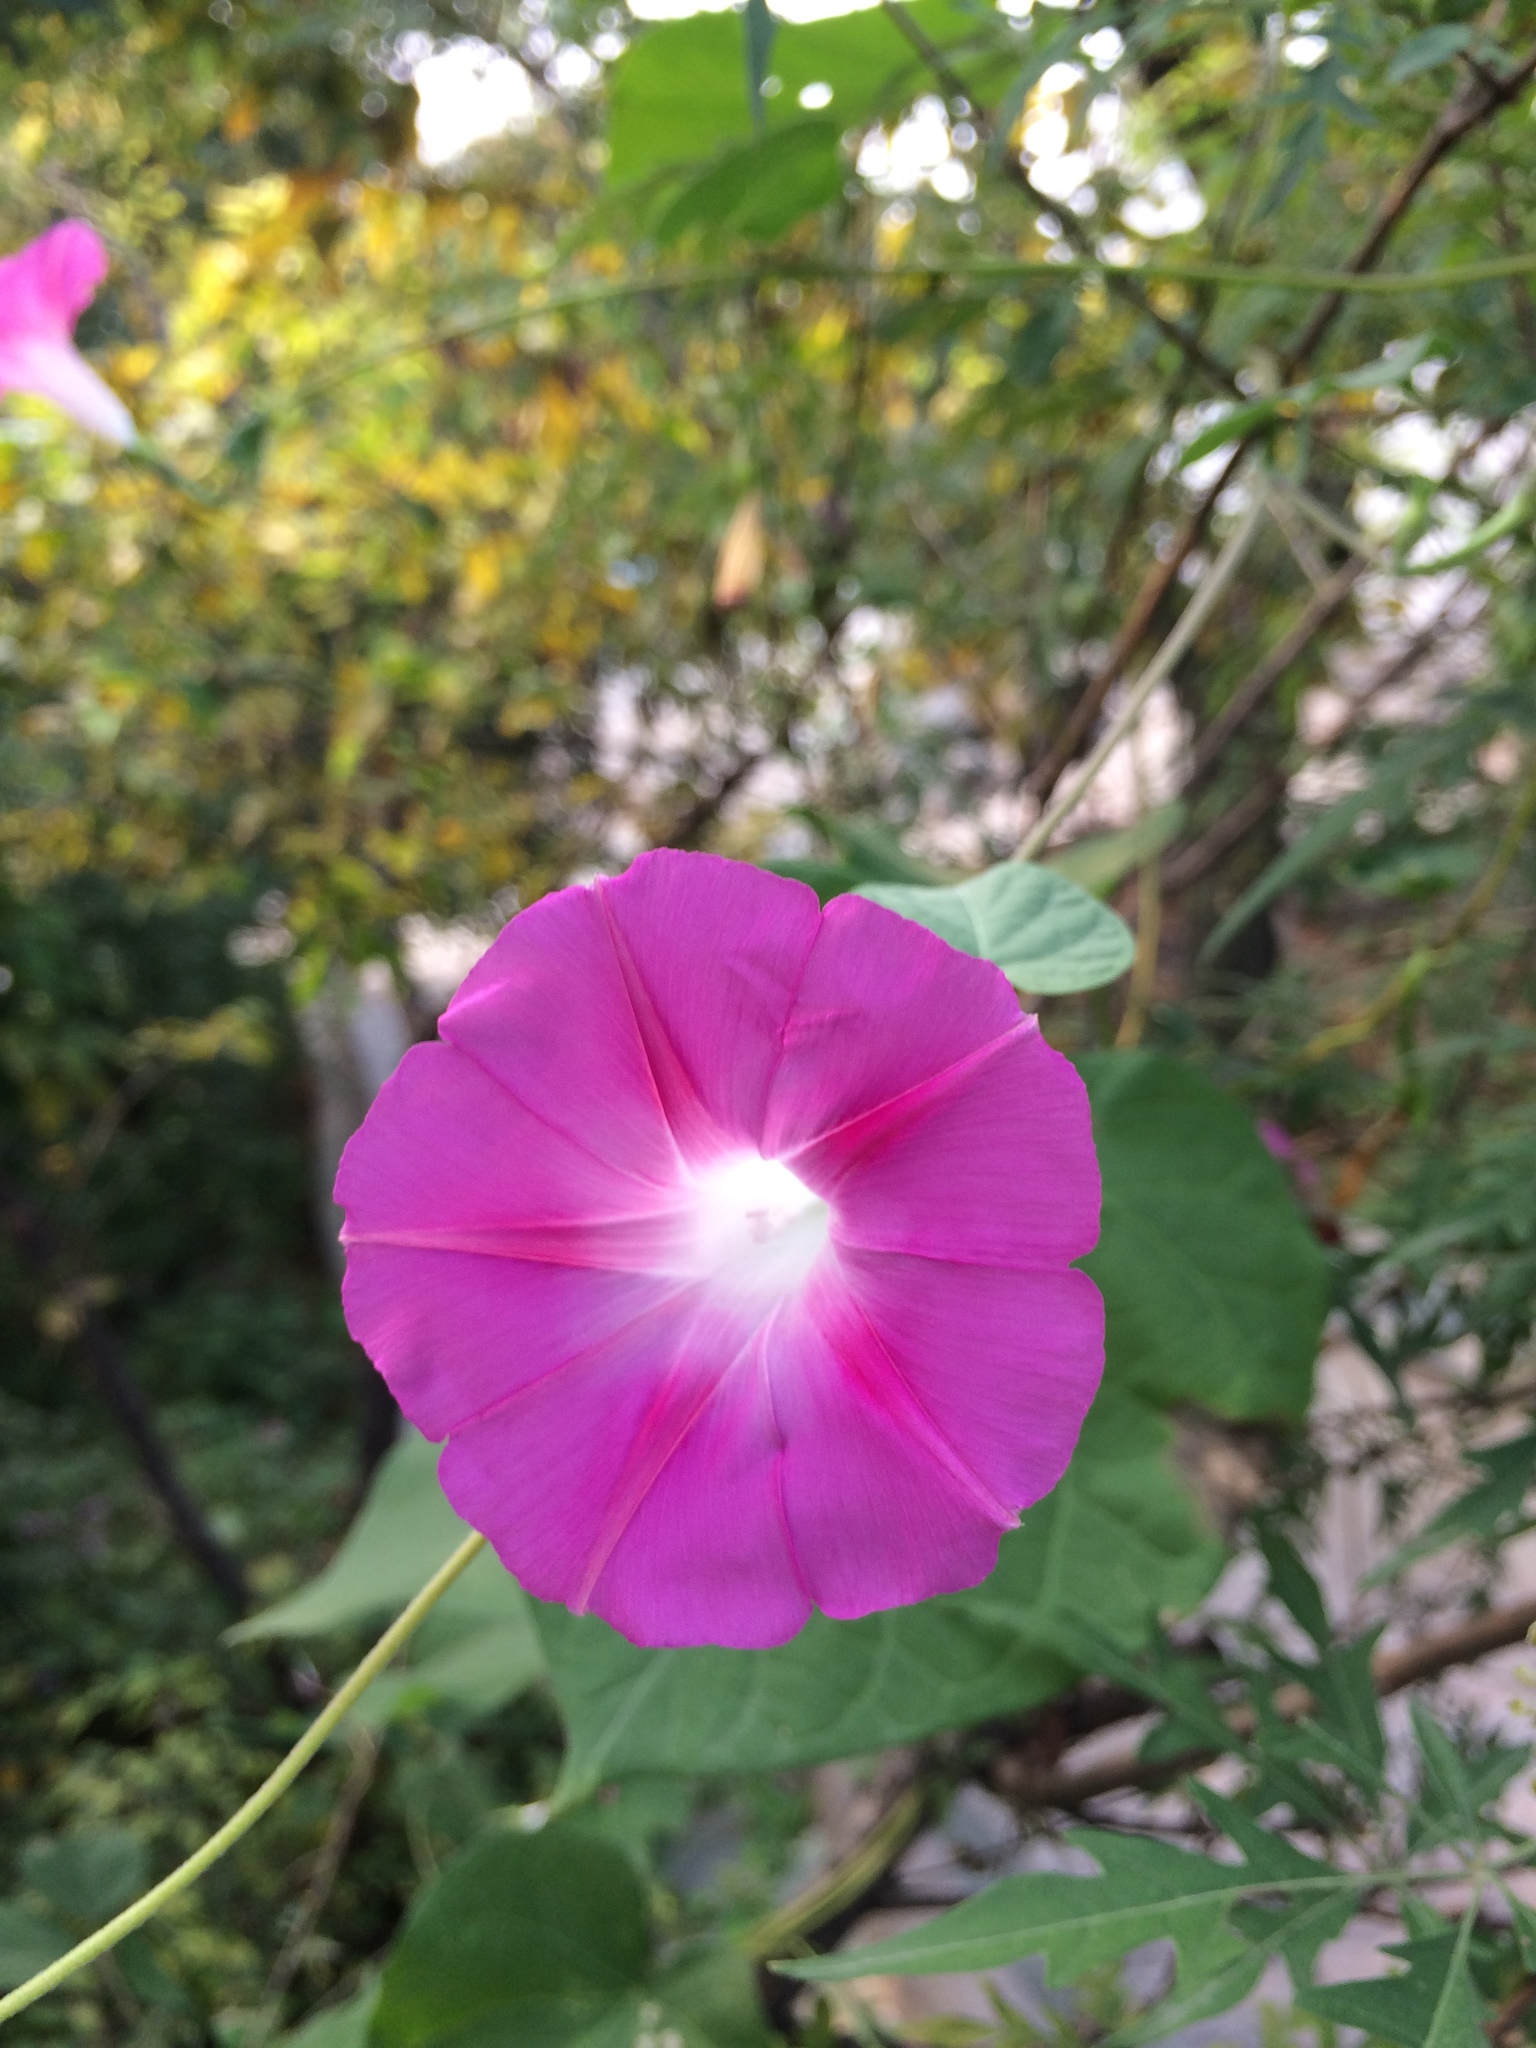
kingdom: Plantae
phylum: Tracheophyta
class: Magnoliopsida
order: Solanales
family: Convolvulaceae
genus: Ipomoea
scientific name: Ipomoea purpurea
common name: Common morning-glory
